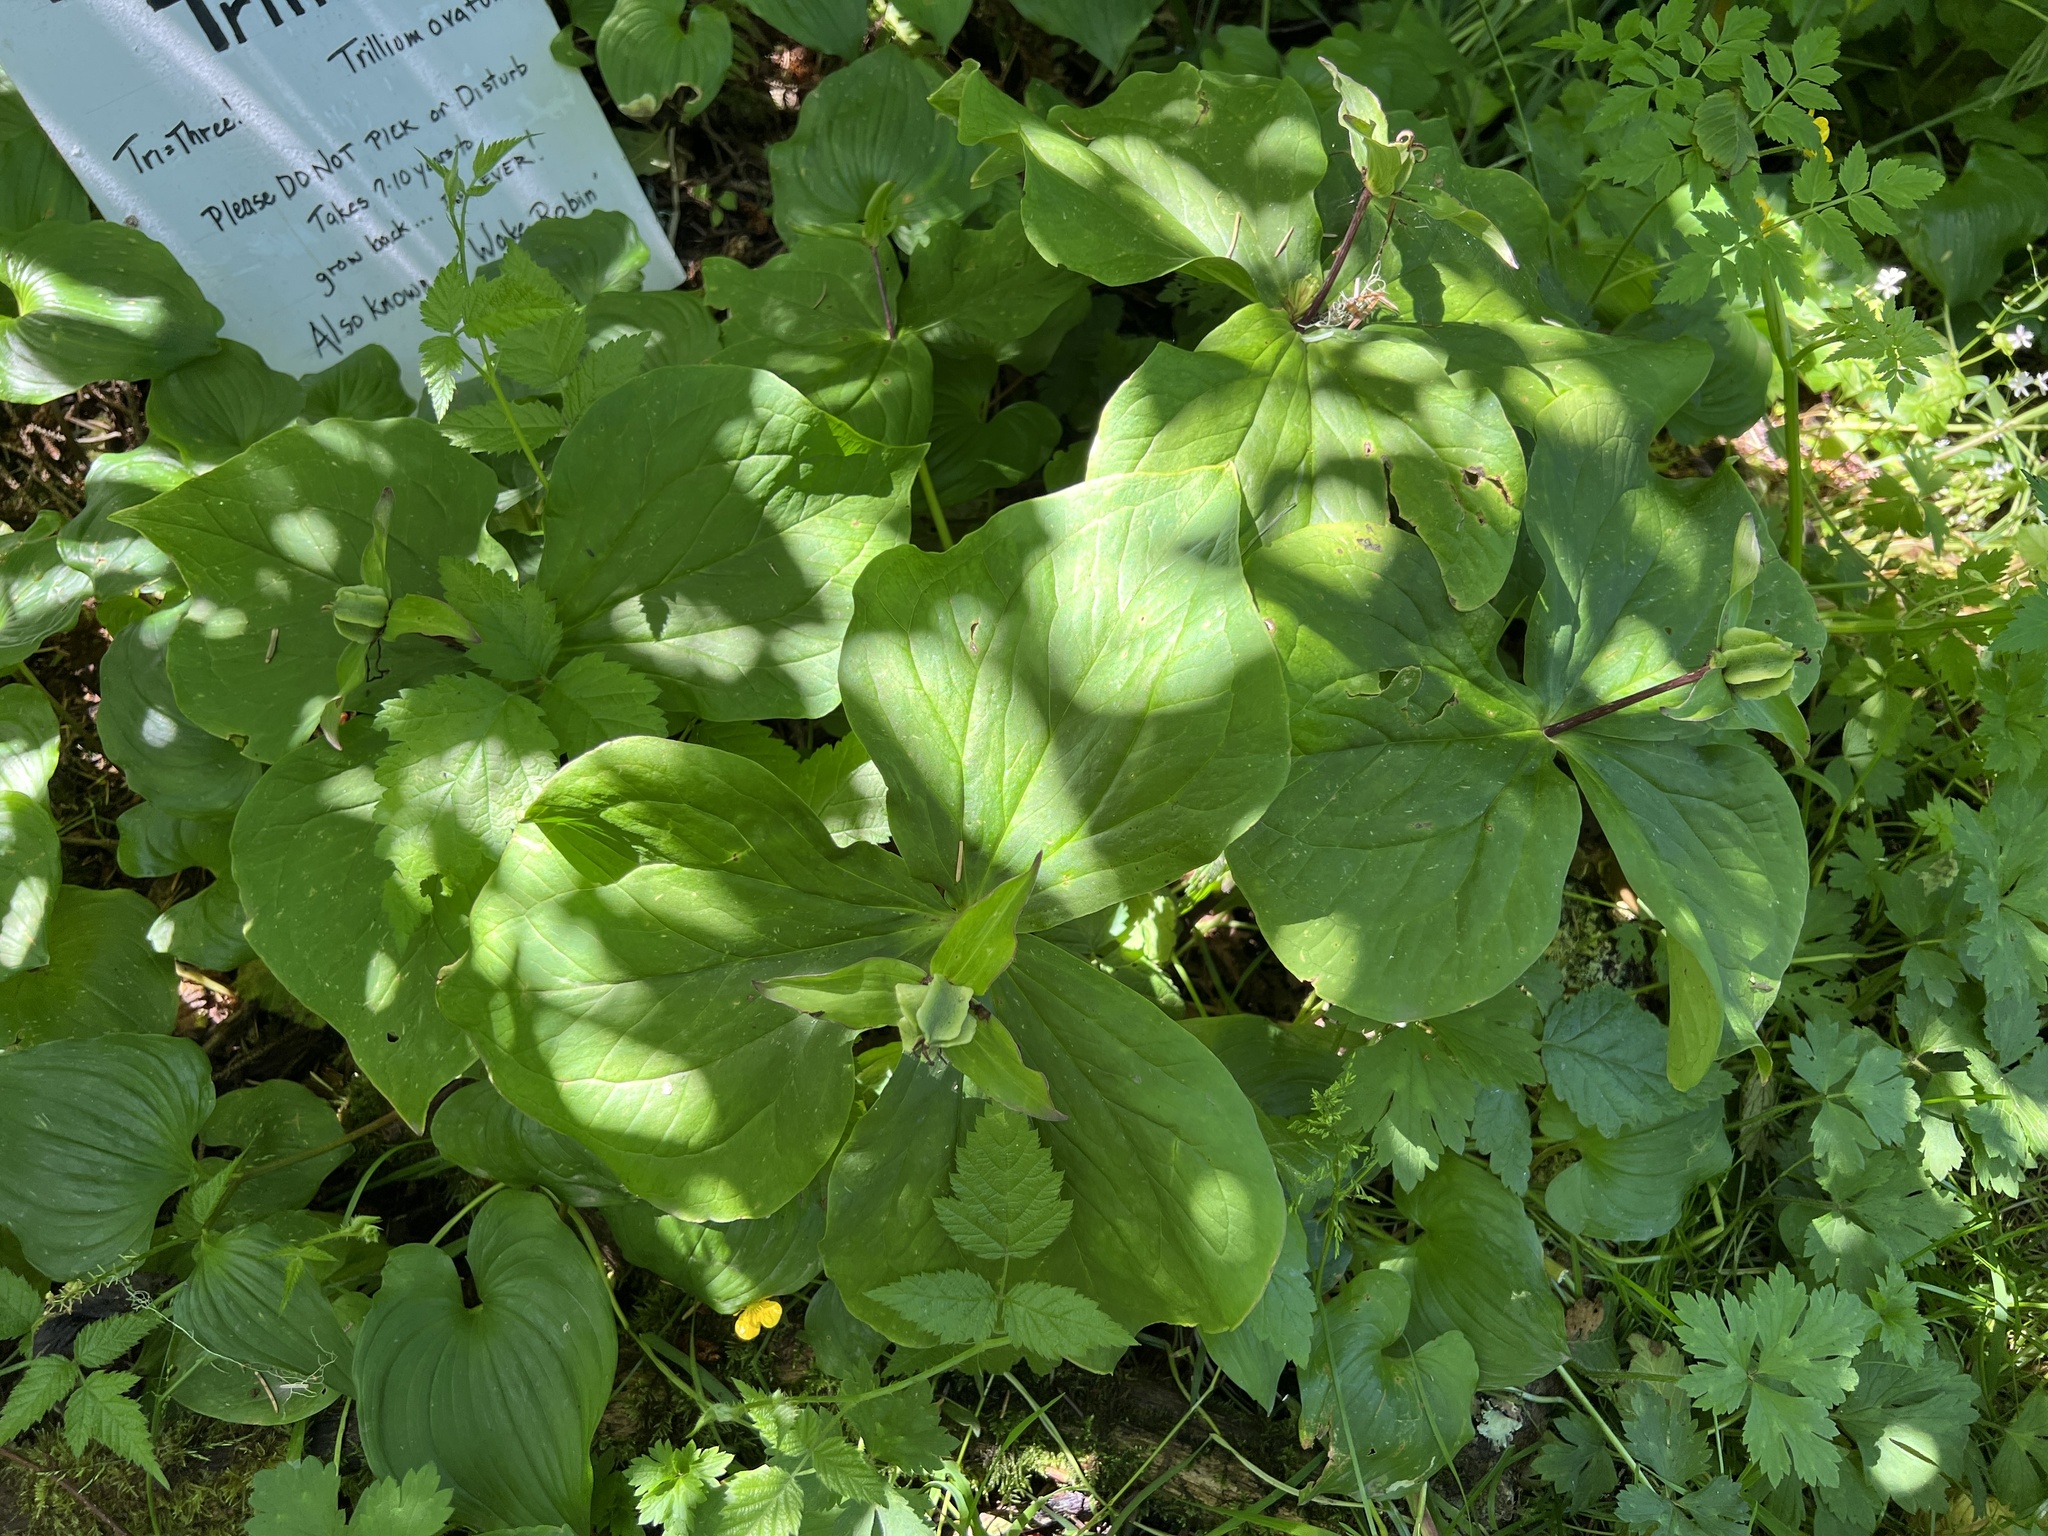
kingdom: Plantae
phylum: Tracheophyta
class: Liliopsida
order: Liliales
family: Melanthiaceae
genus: Trillium
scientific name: Trillium ovatum
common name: Pacific trillium
